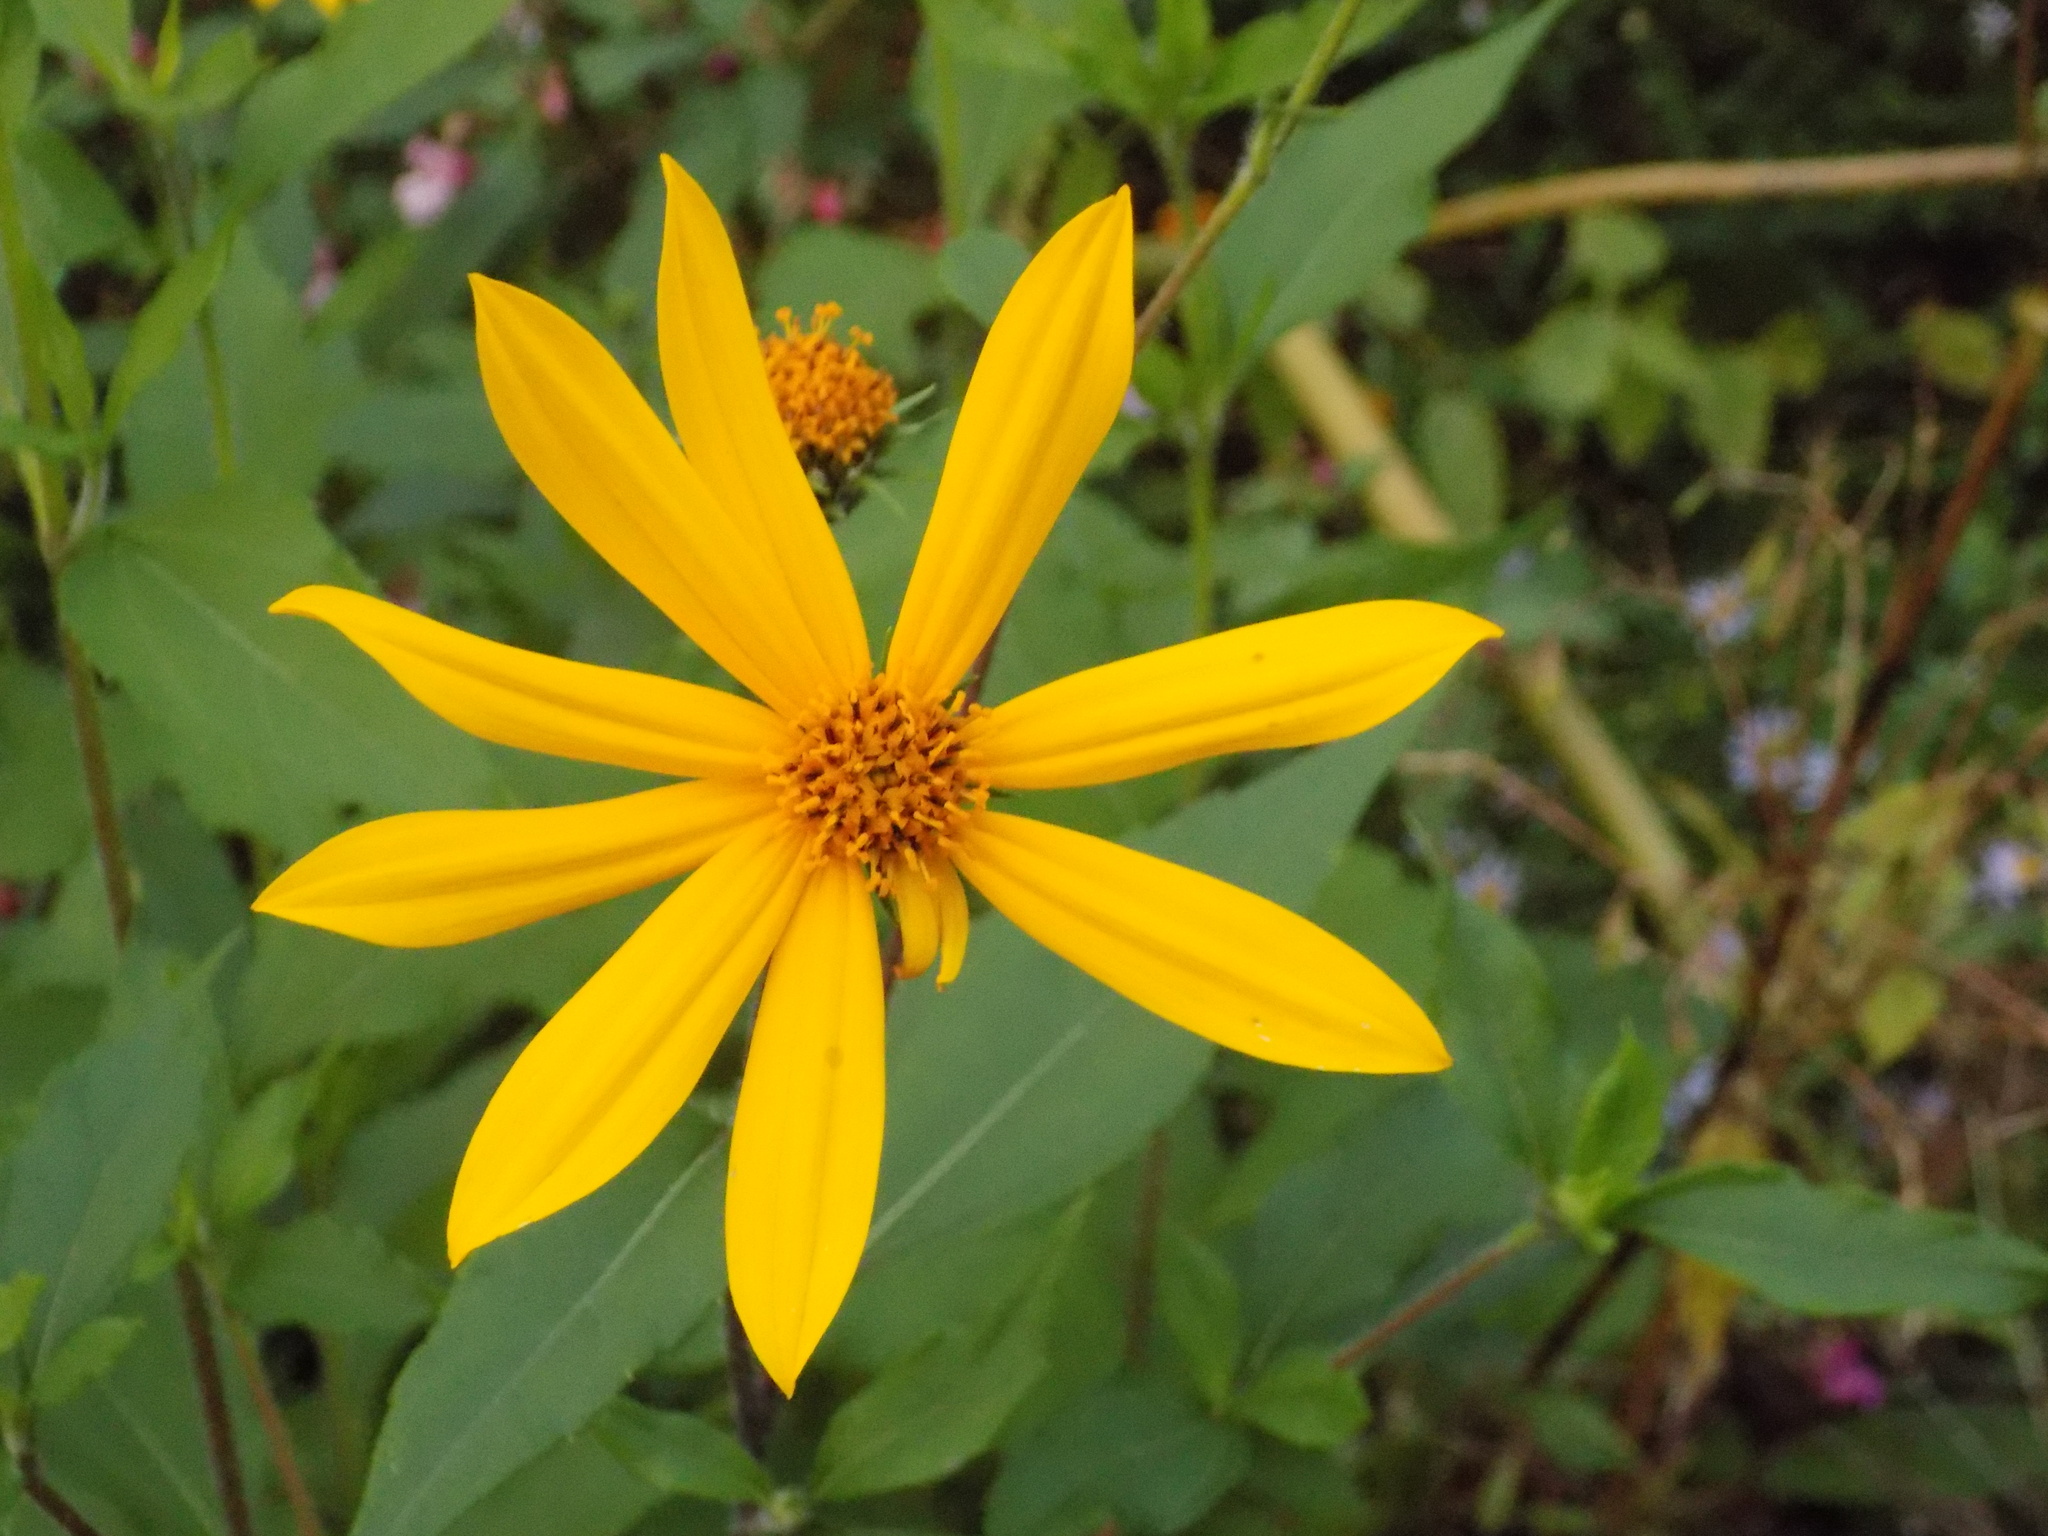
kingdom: Plantae
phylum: Tracheophyta
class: Magnoliopsida
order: Asterales
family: Asteraceae
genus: Helianthus
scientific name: Helianthus tuberosus
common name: Jerusalem artichoke
